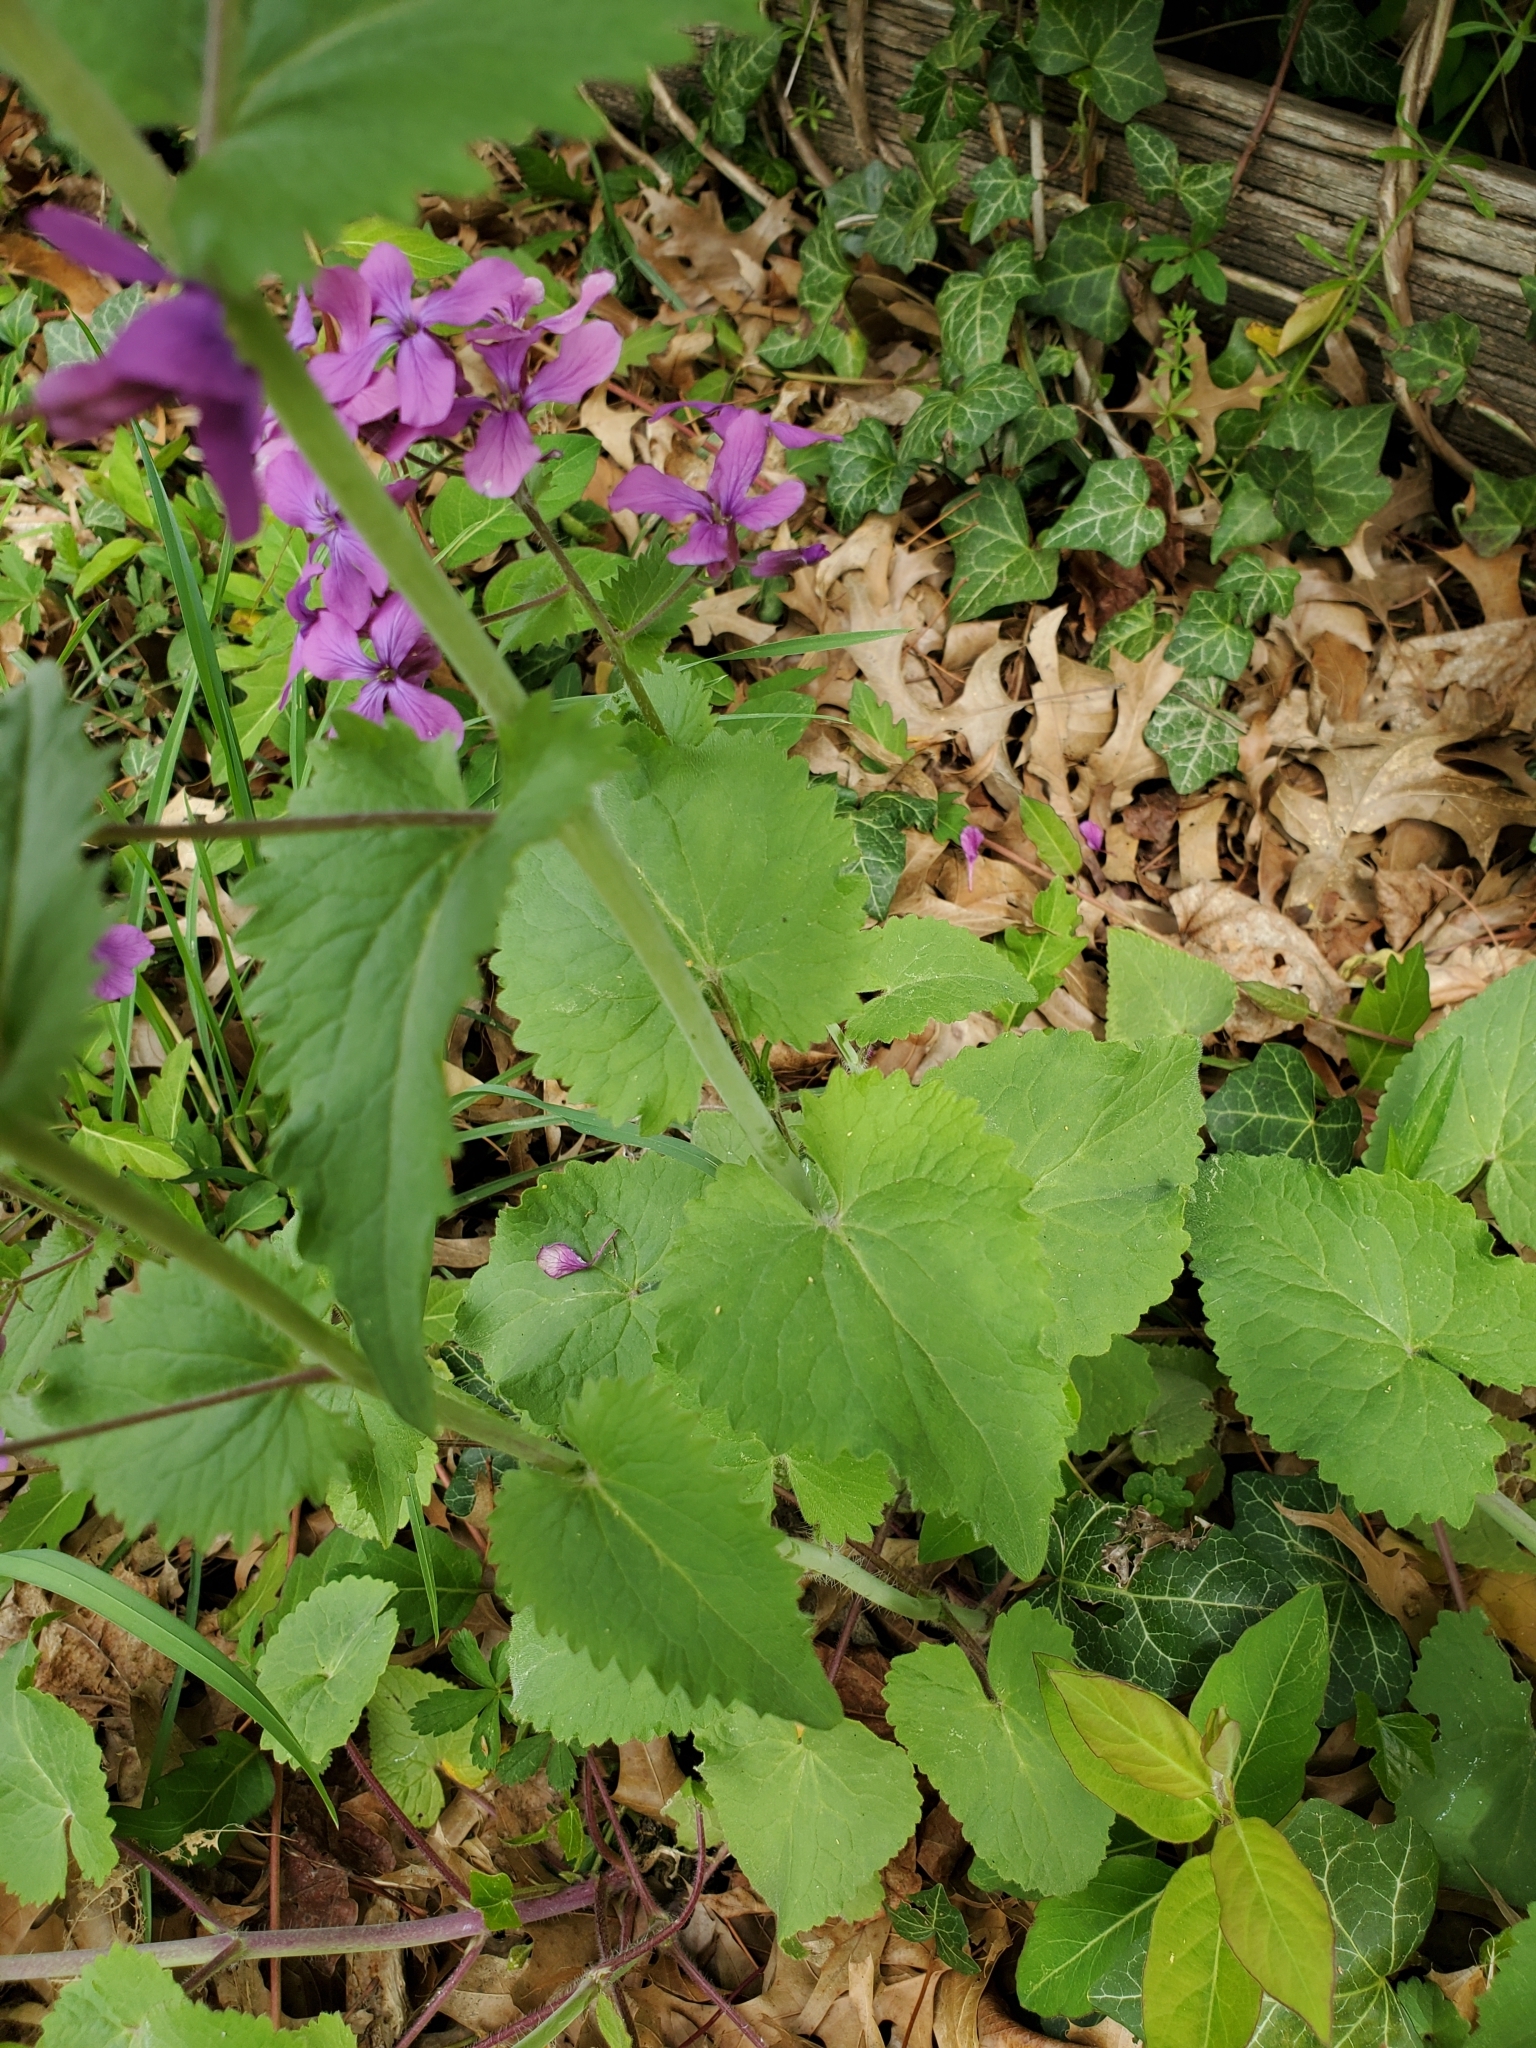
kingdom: Plantae
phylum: Tracheophyta
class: Magnoliopsida
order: Brassicales
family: Brassicaceae
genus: Lunaria
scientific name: Lunaria annua
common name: Honesty
